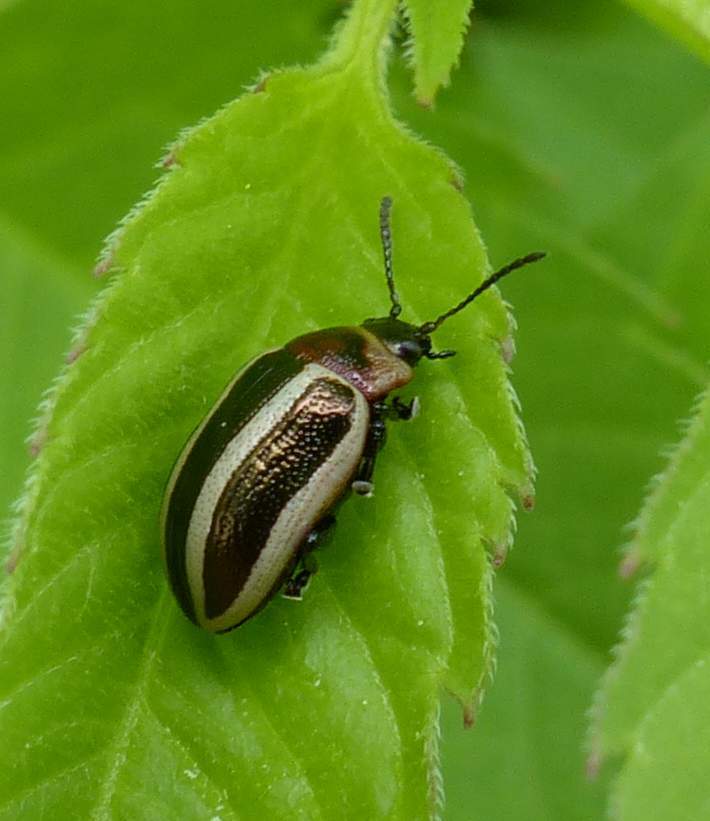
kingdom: Animalia
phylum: Arthropoda
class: Insecta
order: Coleoptera
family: Chrysomelidae
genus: Calligrapha
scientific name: Calligrapha californica
